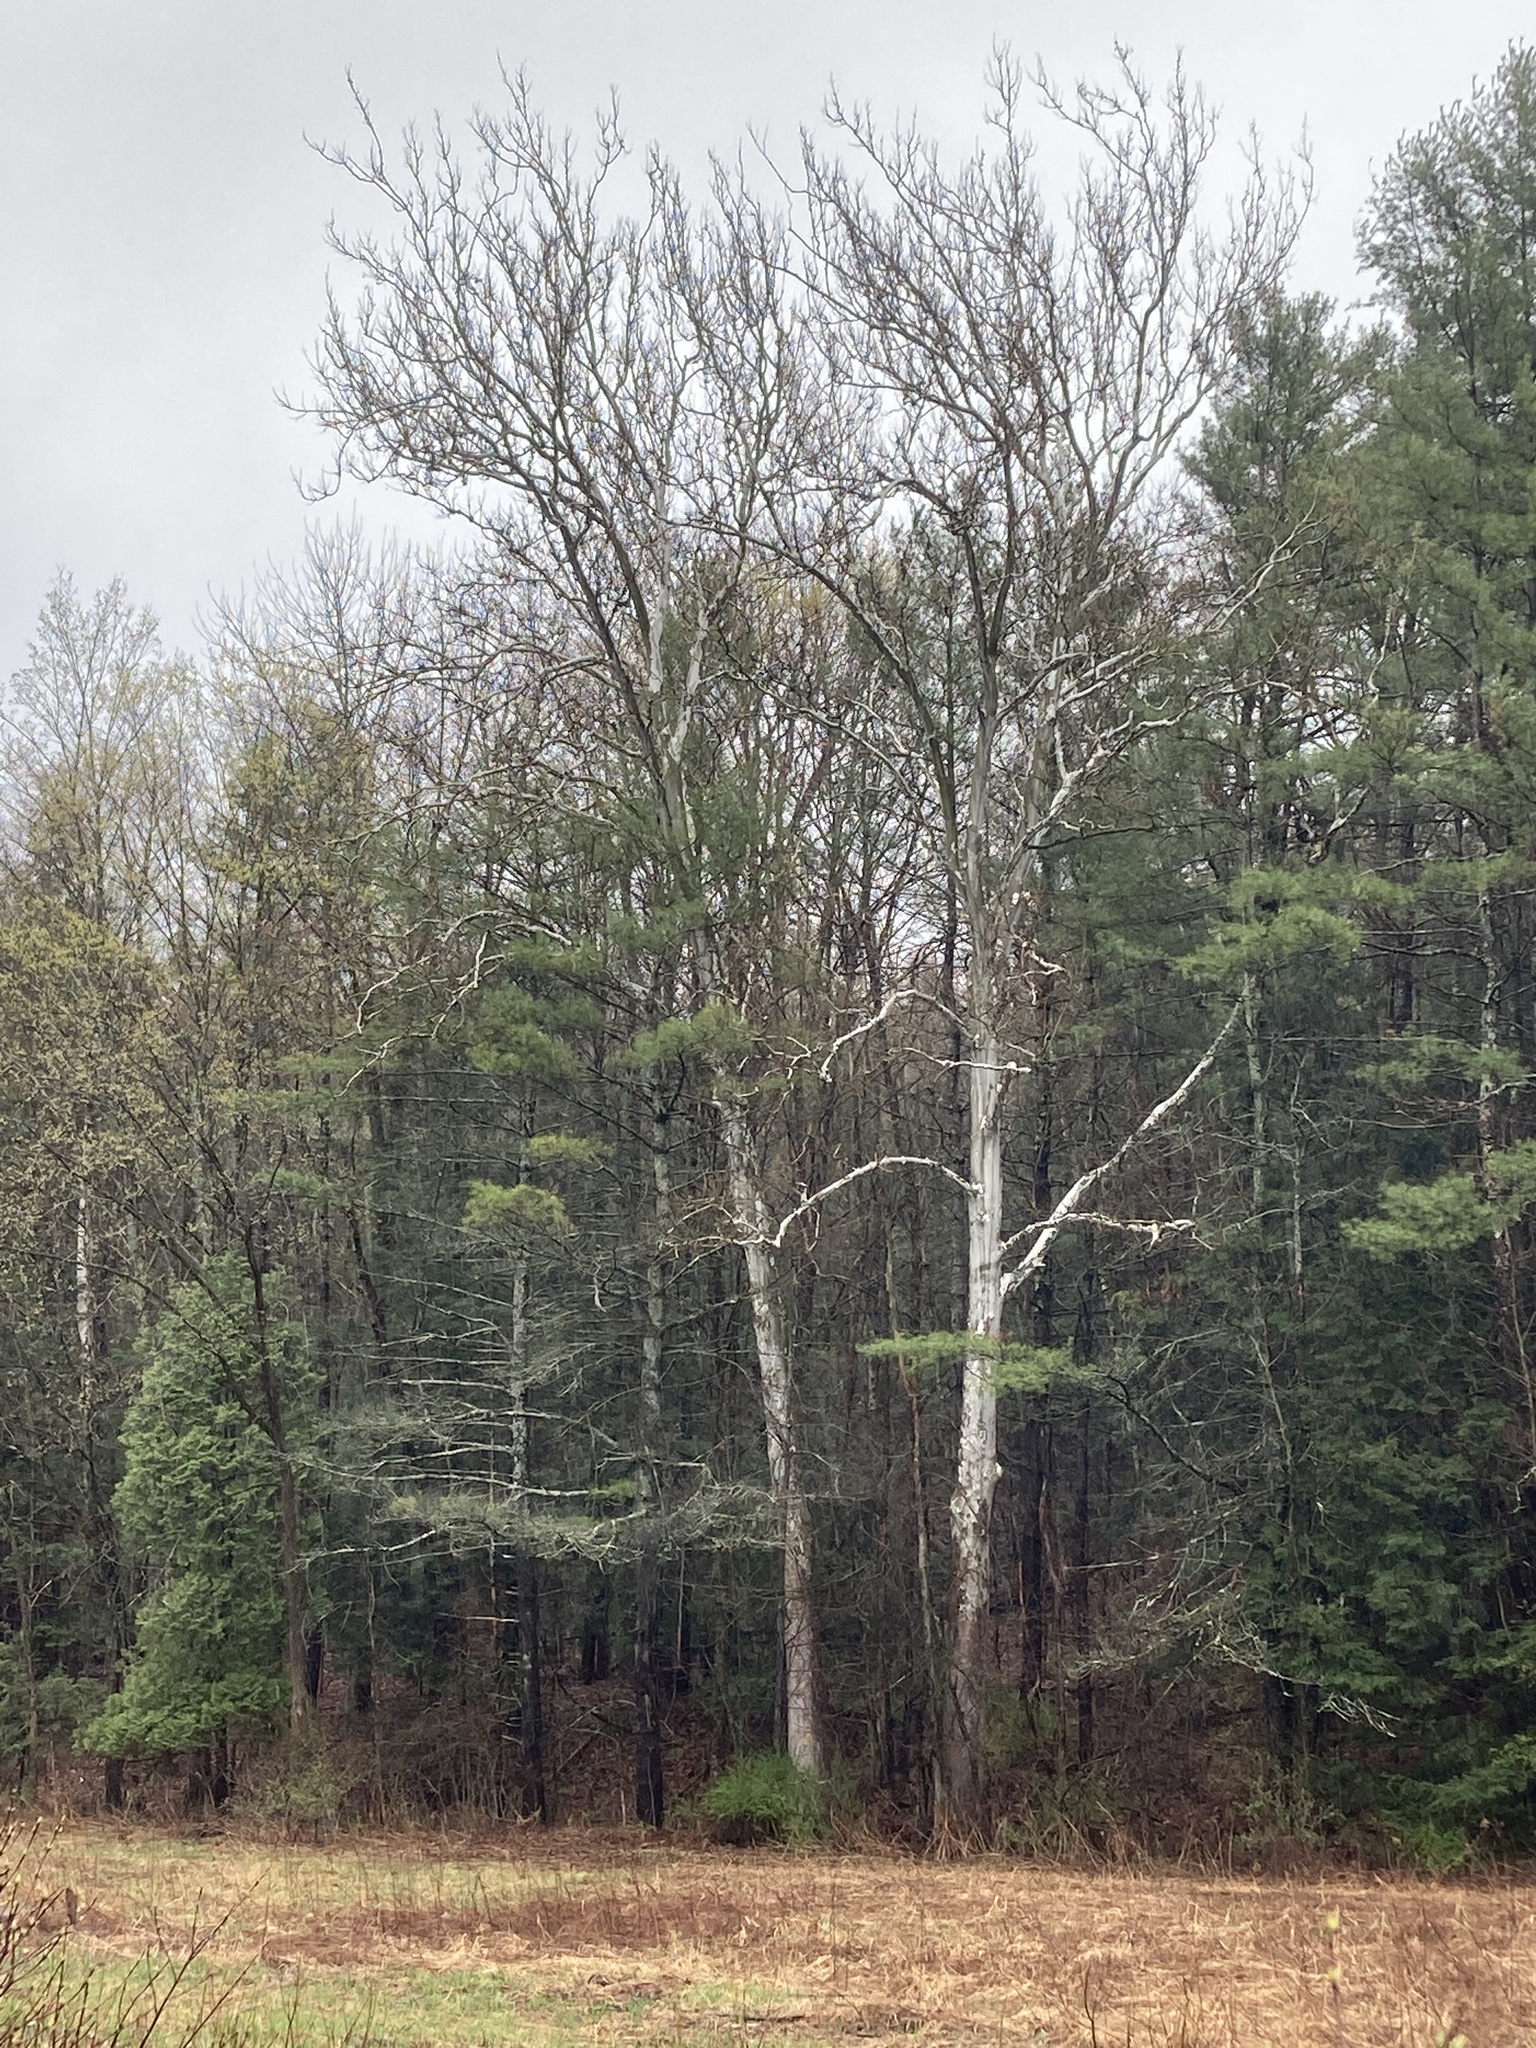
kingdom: Plantae
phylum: Tracheophyta
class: Magnoliopsida
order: Proteales
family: Platanaceae
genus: Platanus
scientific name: Platanus occidentalis
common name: American sycamore
